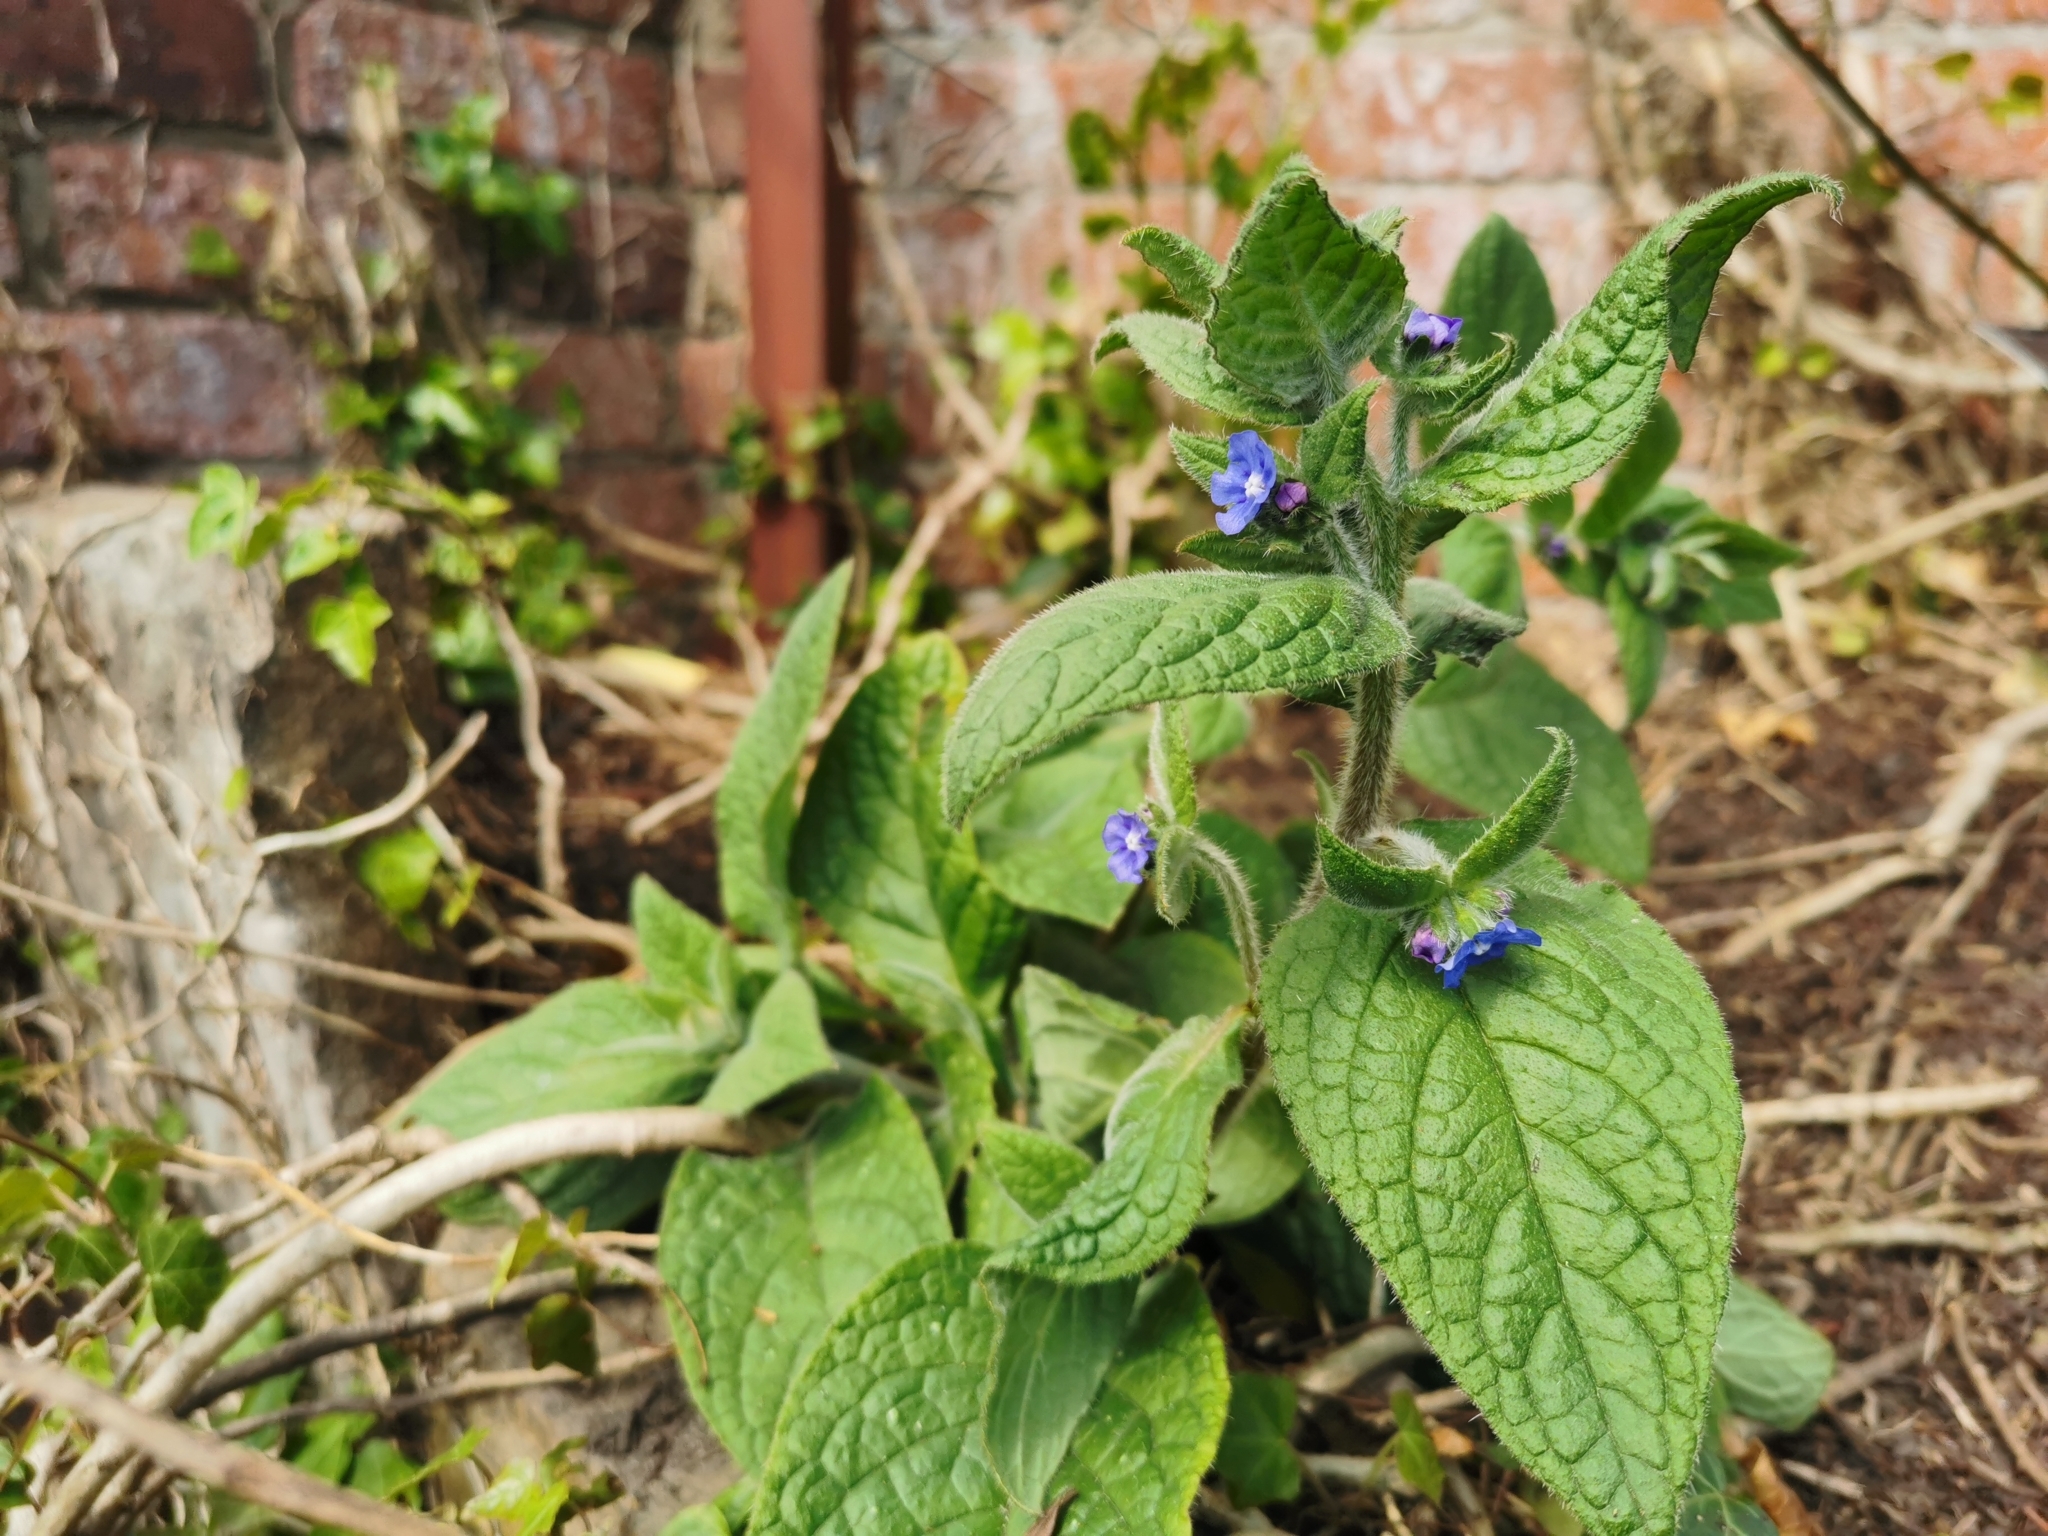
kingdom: Plantae
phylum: Tracheophyta
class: Magnoliopsida
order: Boraginales
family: Boraginaceae
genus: Pentaglottis
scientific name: Pentaglottis sempervirens
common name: Green alkanet
